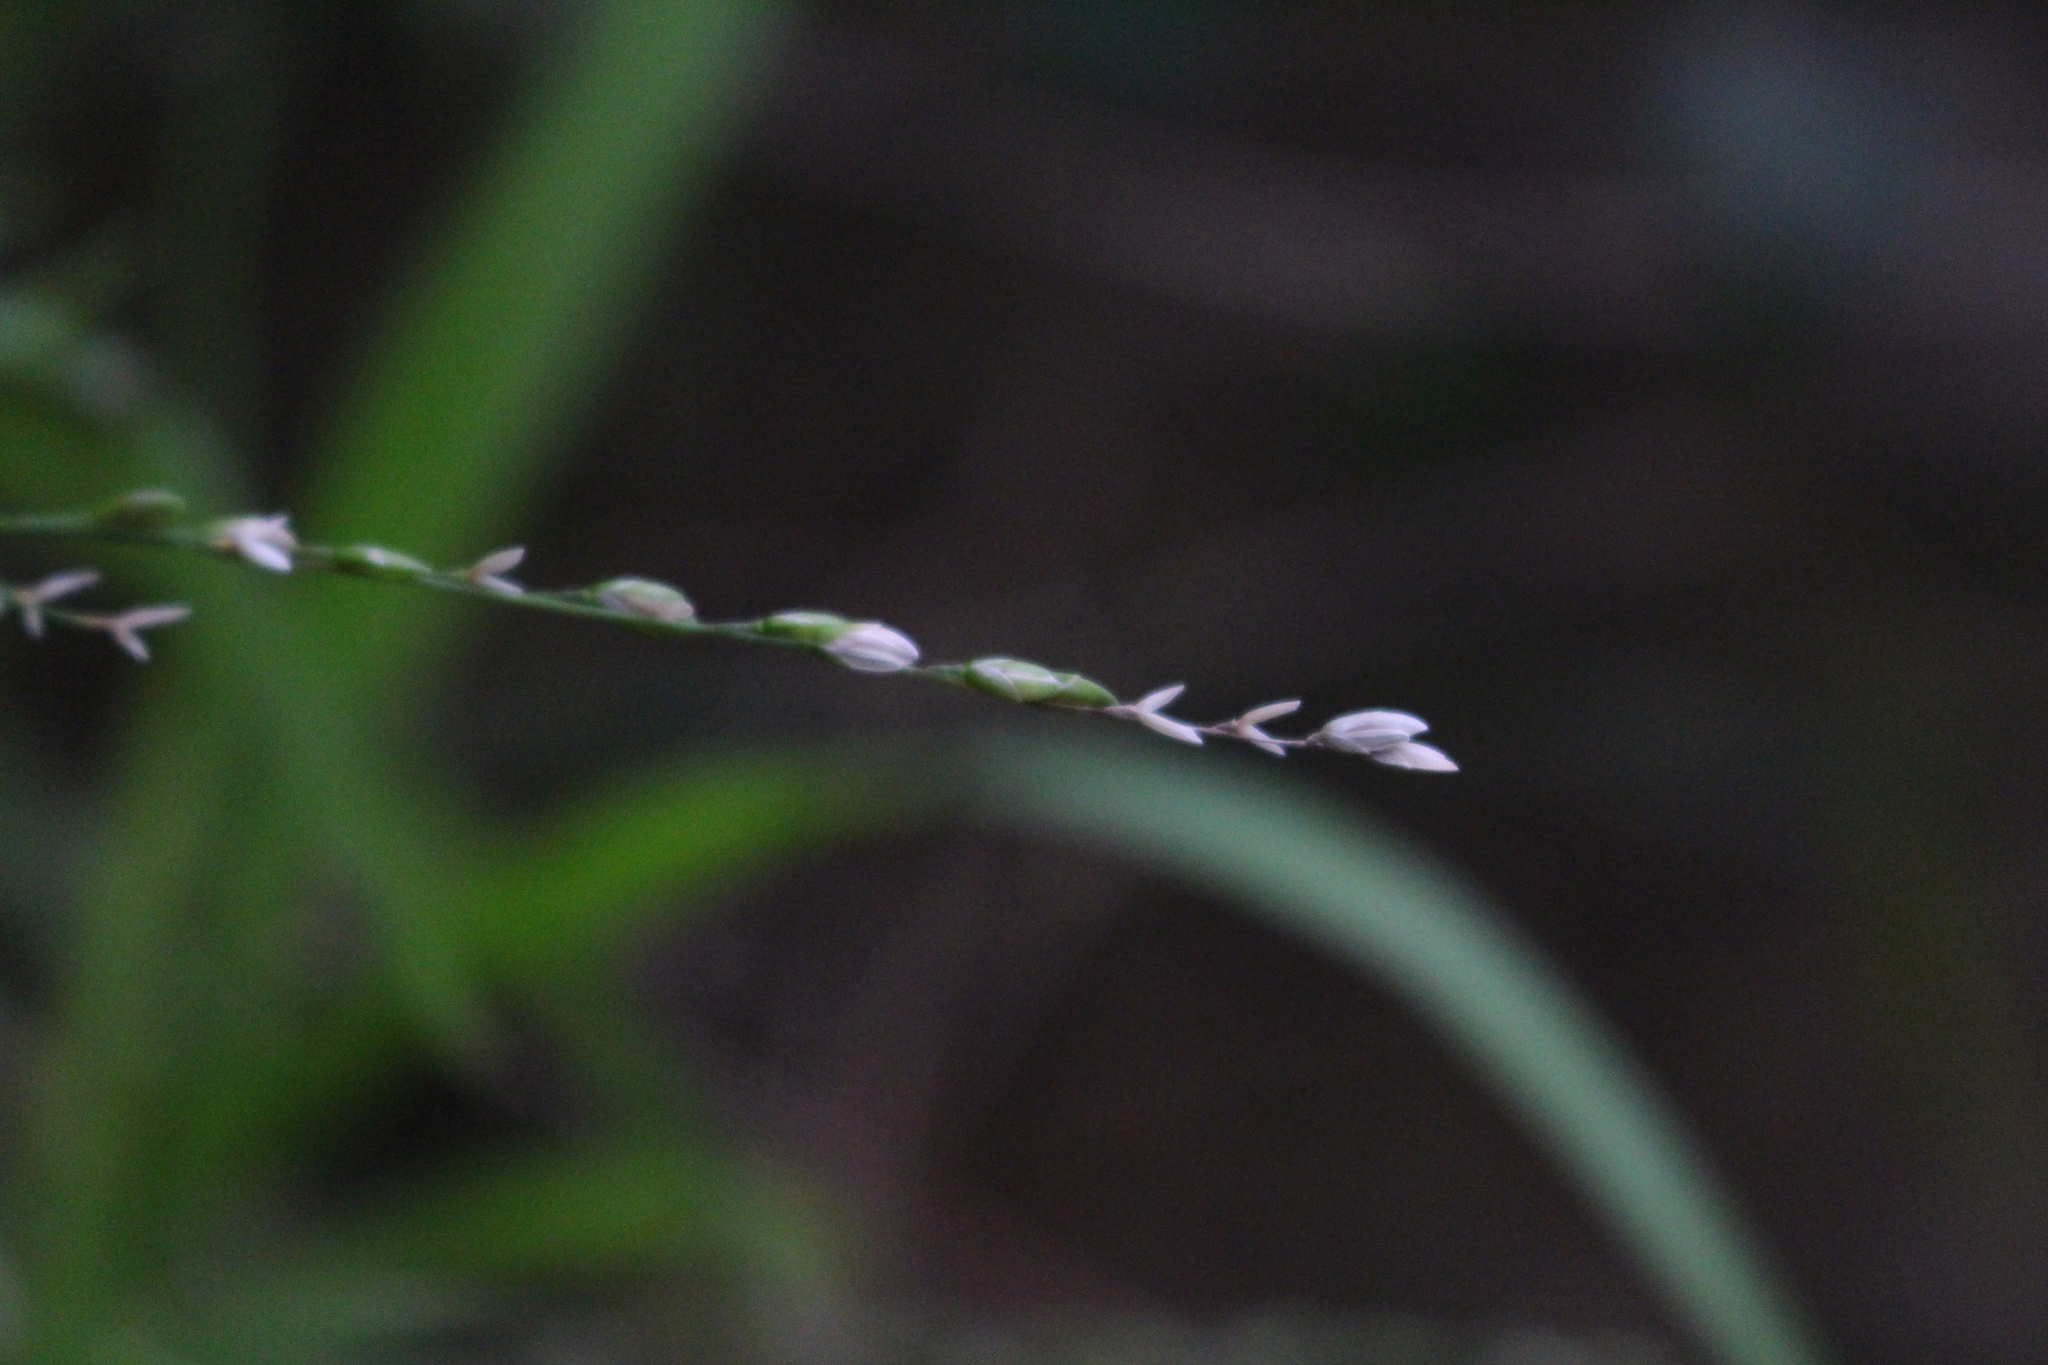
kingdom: Plantae
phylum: Tracheophyta
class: Liliopsida
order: Poales
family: Poaceae
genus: Ehrharta
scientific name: Ehrharta erecta
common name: Panic veldtgrass
